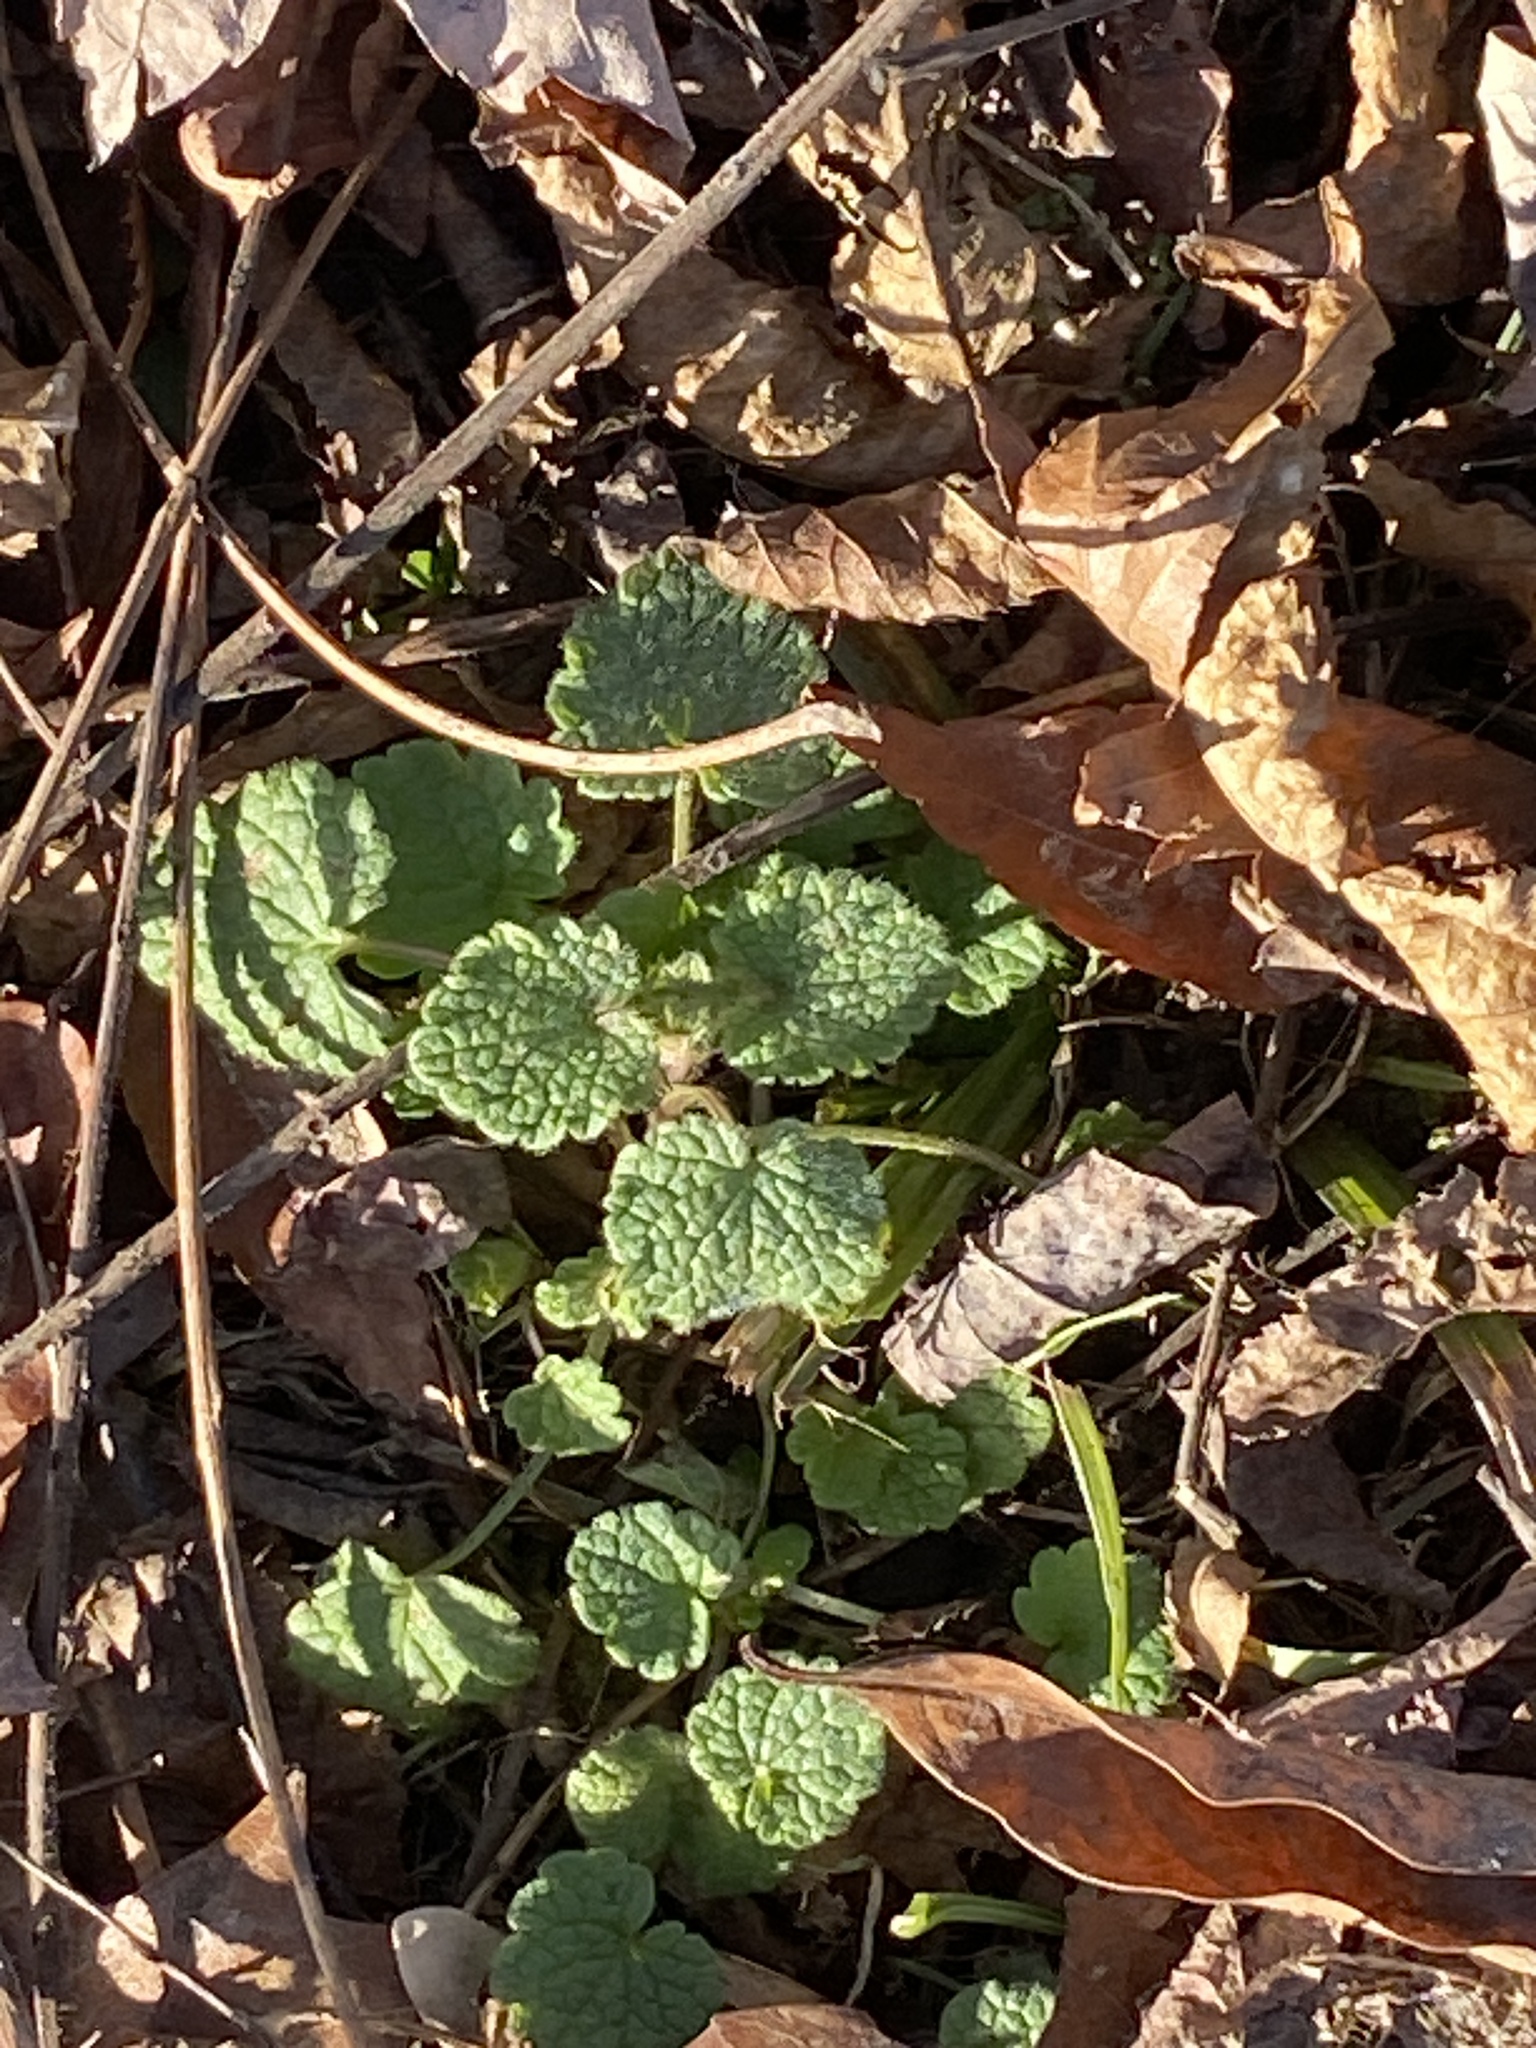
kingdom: Plantae
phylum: Tracheophyta
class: Magnoliopsida
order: Lamiales
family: Lamiaceae
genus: Lamium
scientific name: Lamium purpureum
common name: Red dead-nettle
